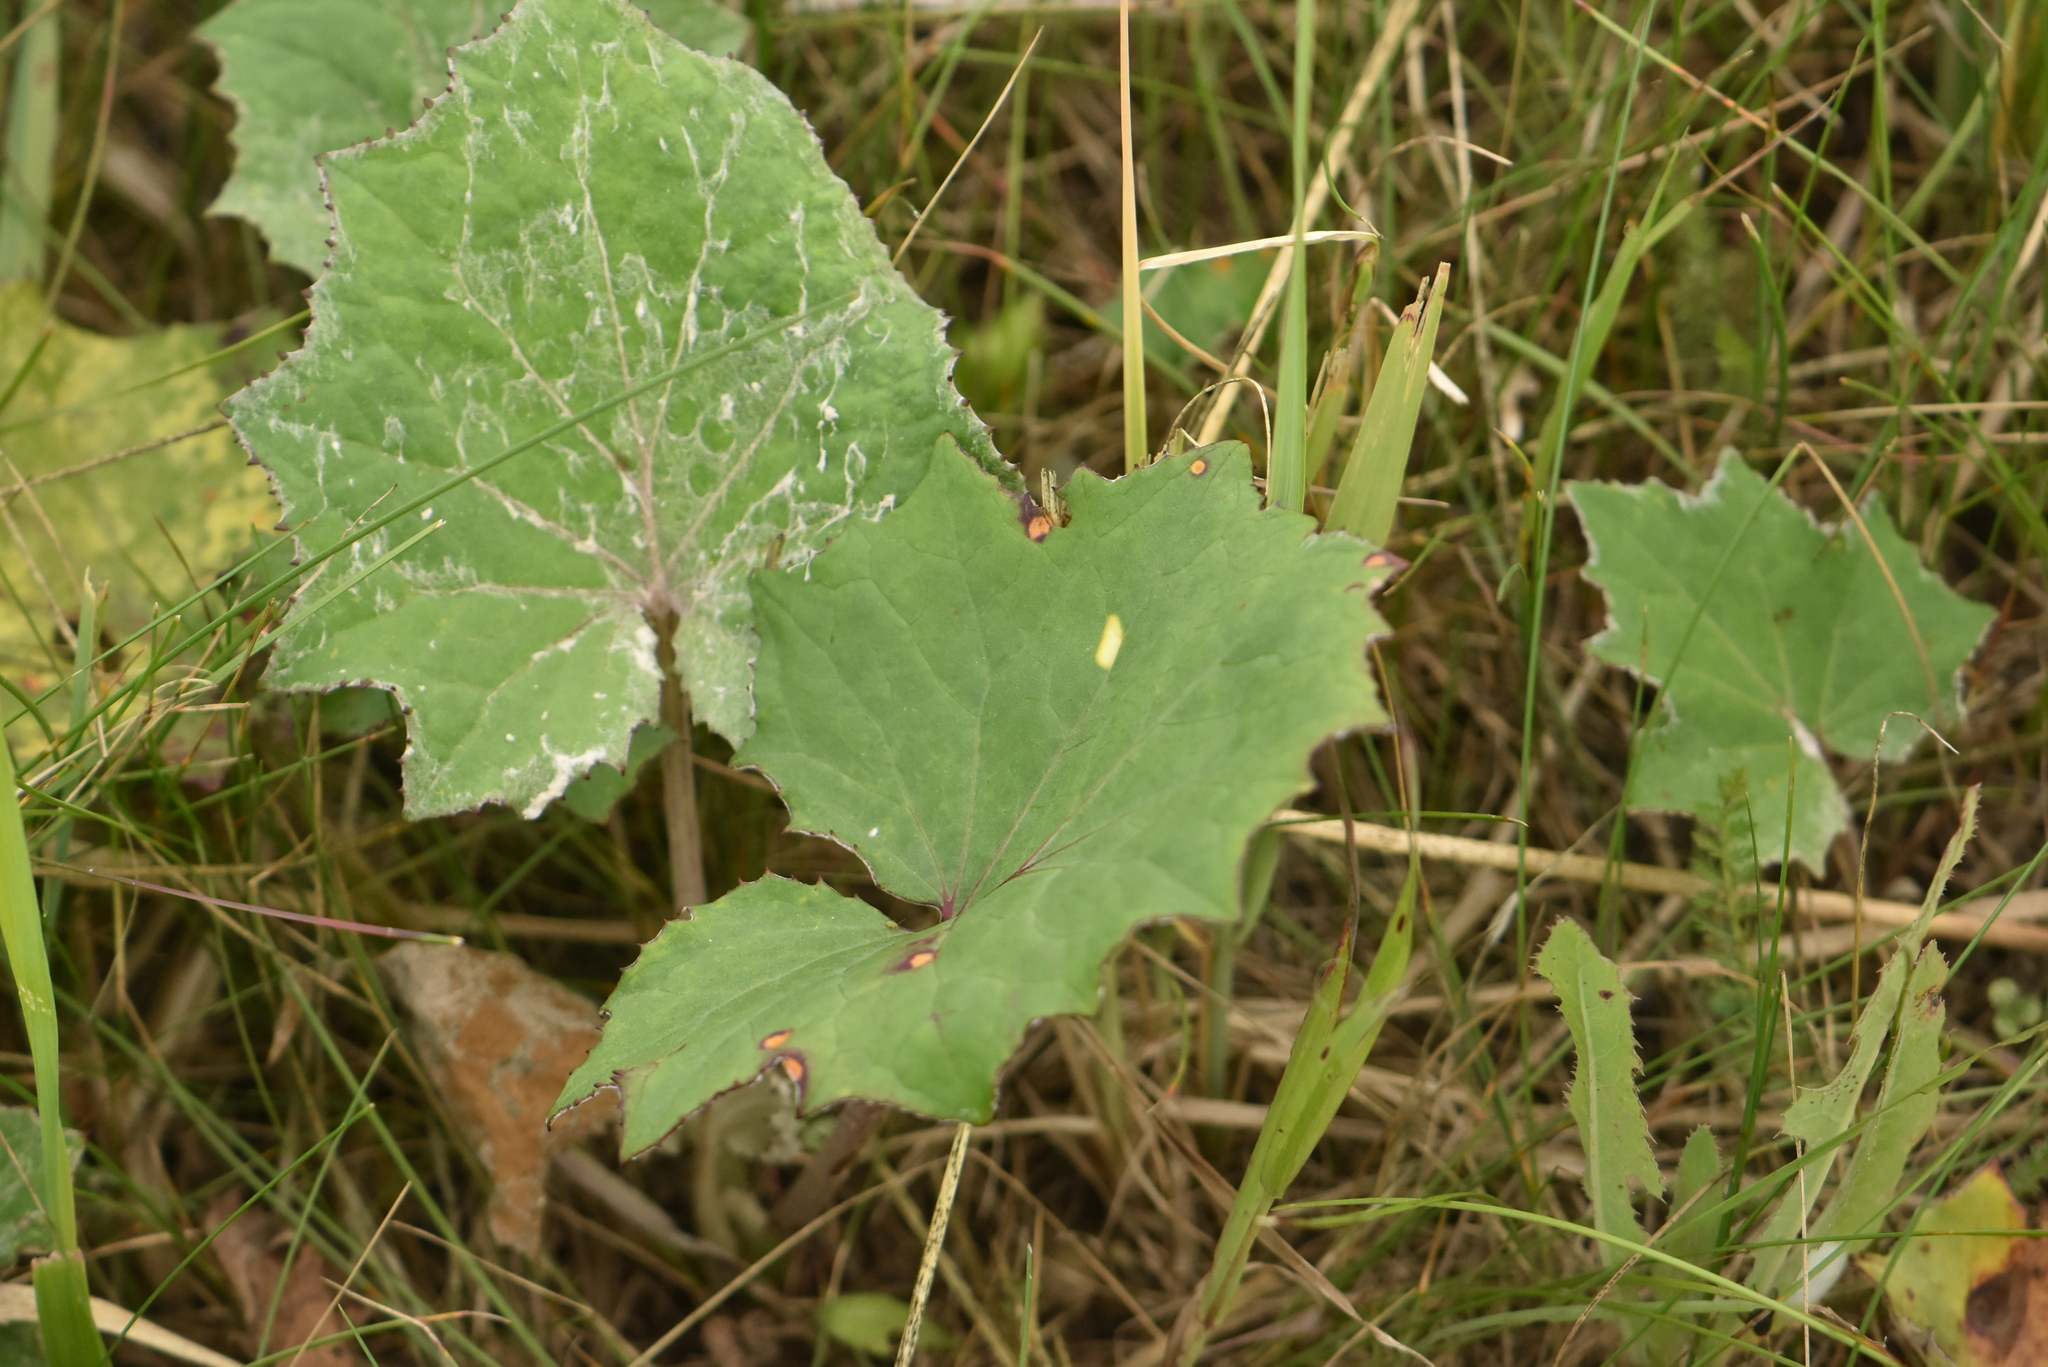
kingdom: Plantae
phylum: Tracheophyta
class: Magnoliopsida
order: Asterales
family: Asteraceae
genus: Tussilago
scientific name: Tussilago farfara
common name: Coltsfoot
